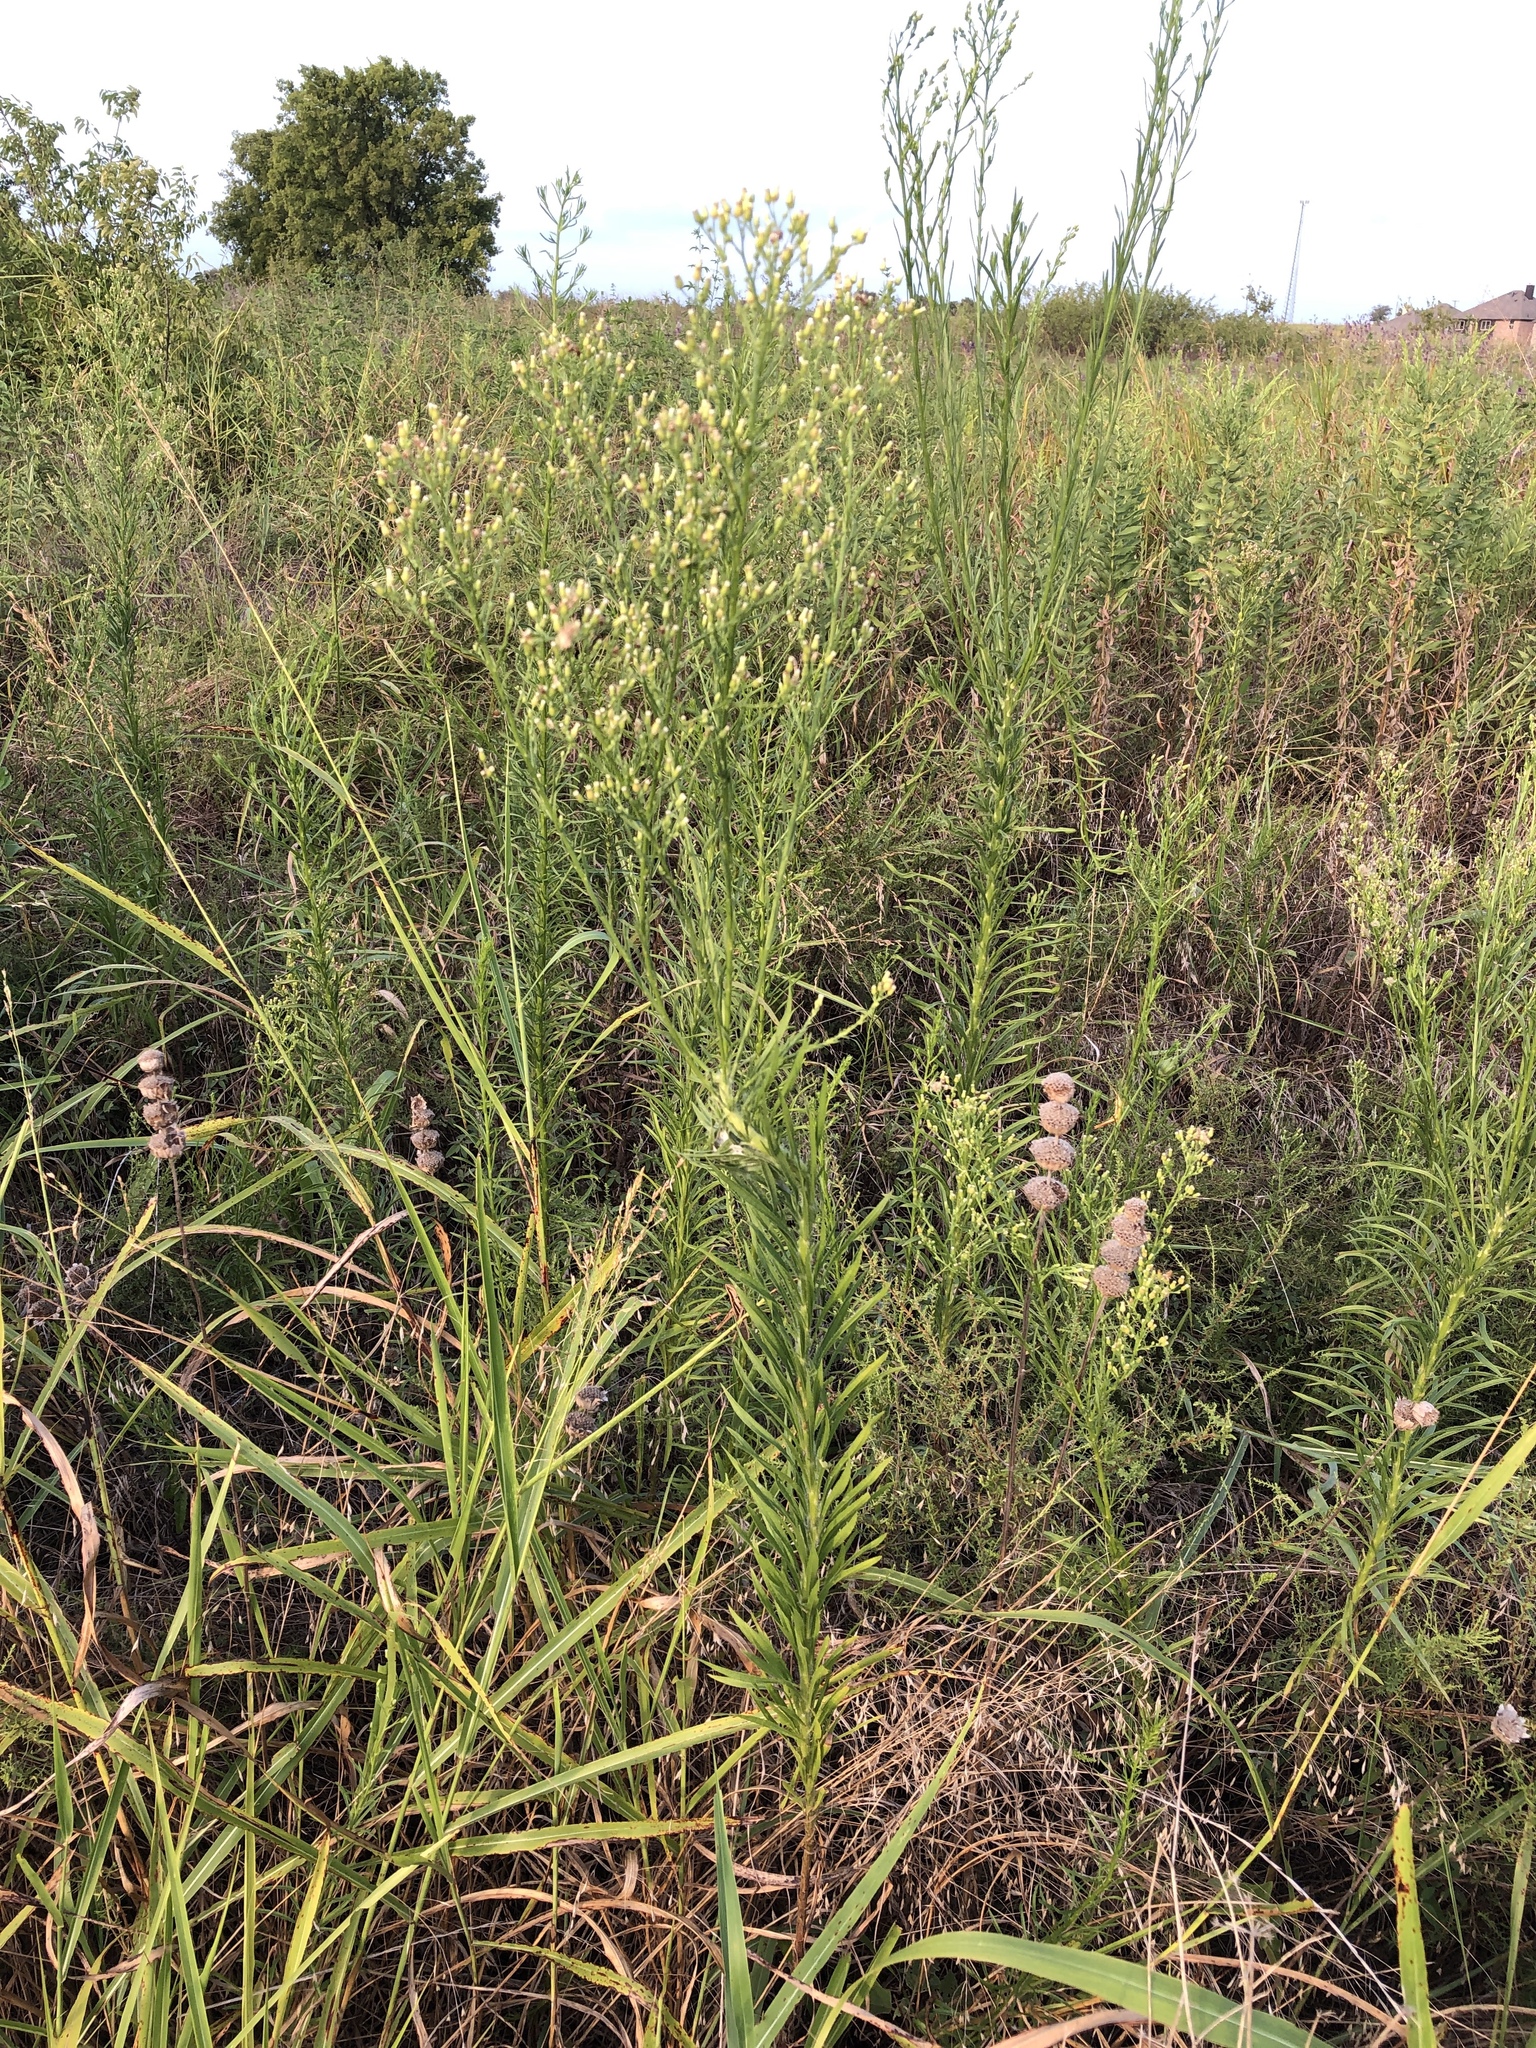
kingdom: Plantae
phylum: Tracheophyta
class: Magnoliopsida
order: Asterales
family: Asteraceae
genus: Erigeron
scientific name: Erigeron canadensis
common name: Canadian fleabane
